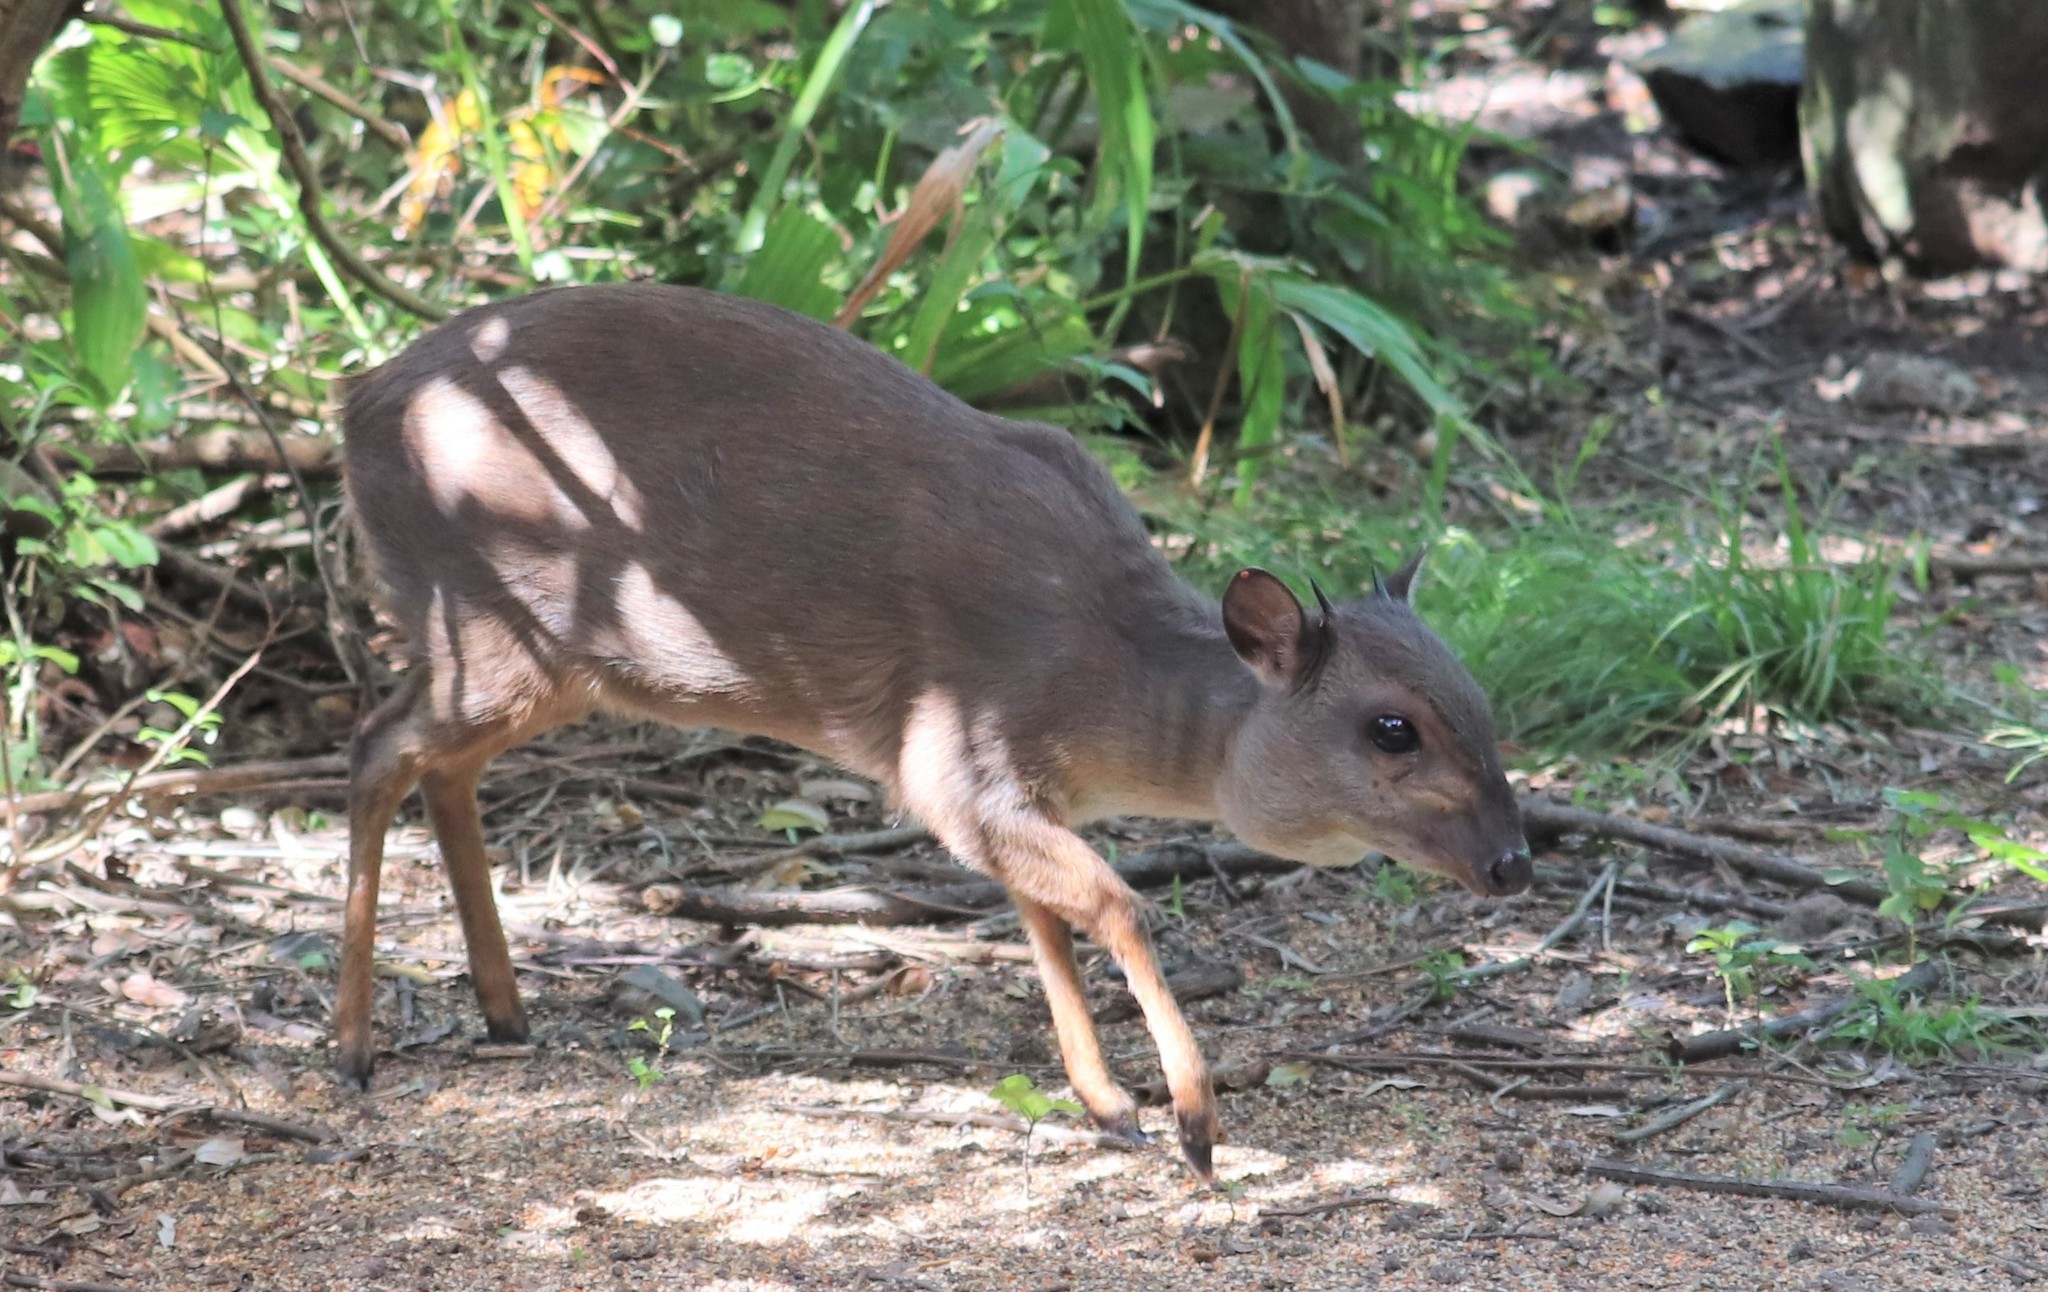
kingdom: Animalia
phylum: Chordata
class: Mammalia
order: Artiodactyla
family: Bovidae
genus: Philantomba
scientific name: Philantomba monticola
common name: Blue duiker
